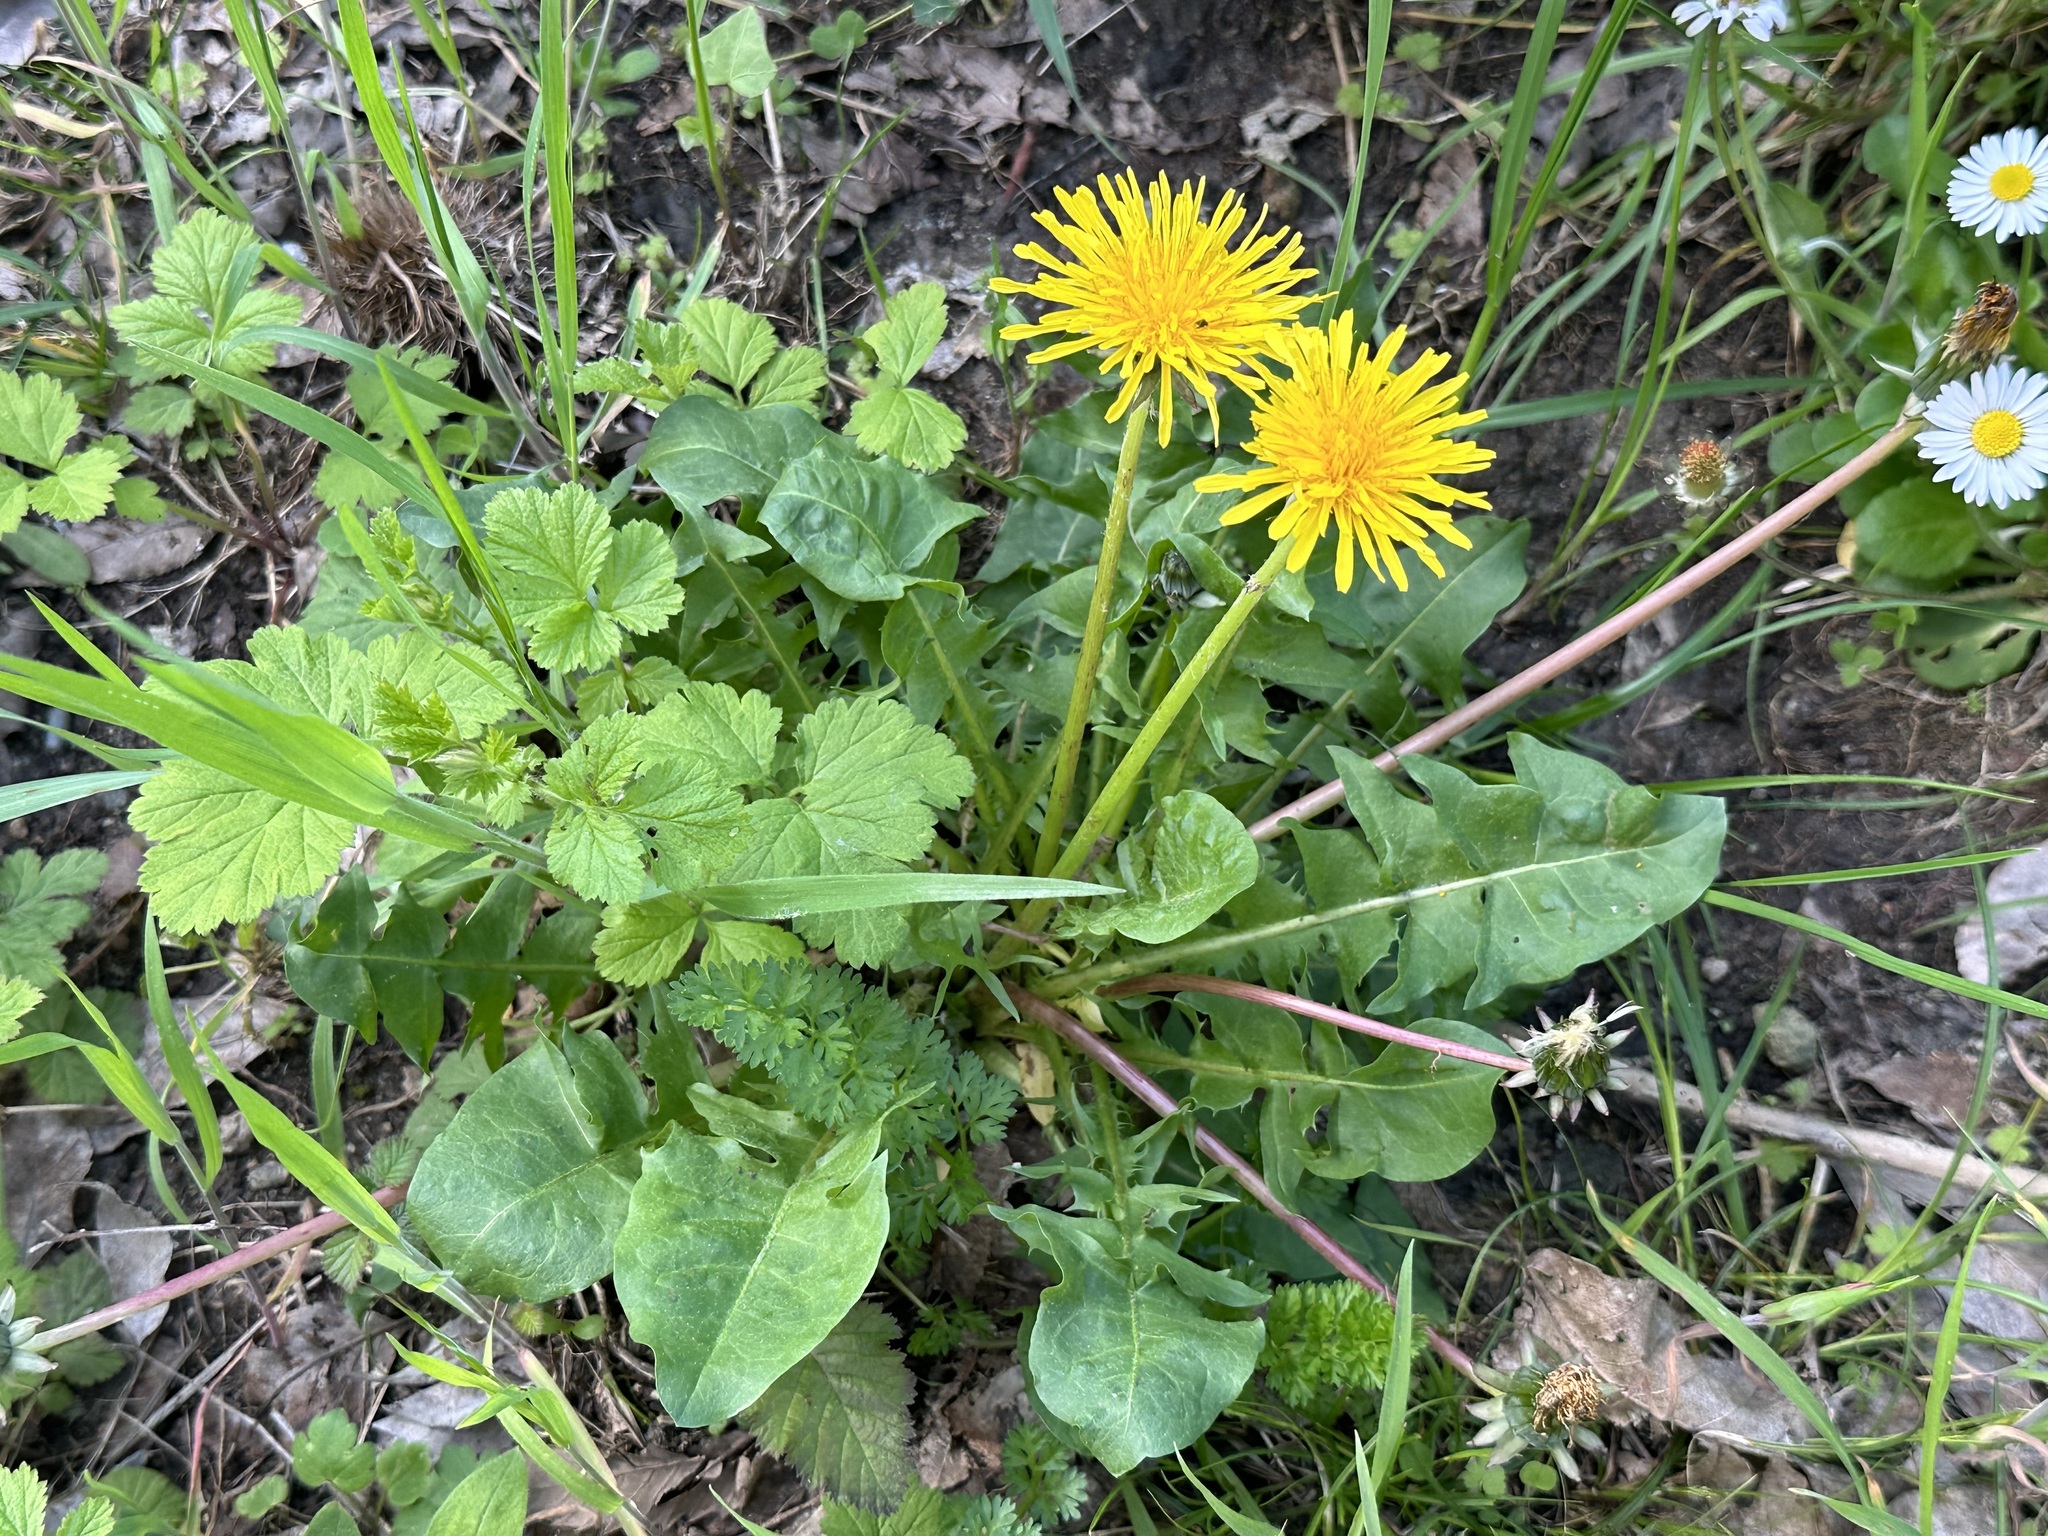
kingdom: Plantae
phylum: Tracheophyta
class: Magnoliopsida
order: Asterales
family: Asteraceae
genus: Taraxacum
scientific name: Taraxacum officinale
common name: Common dandelion
